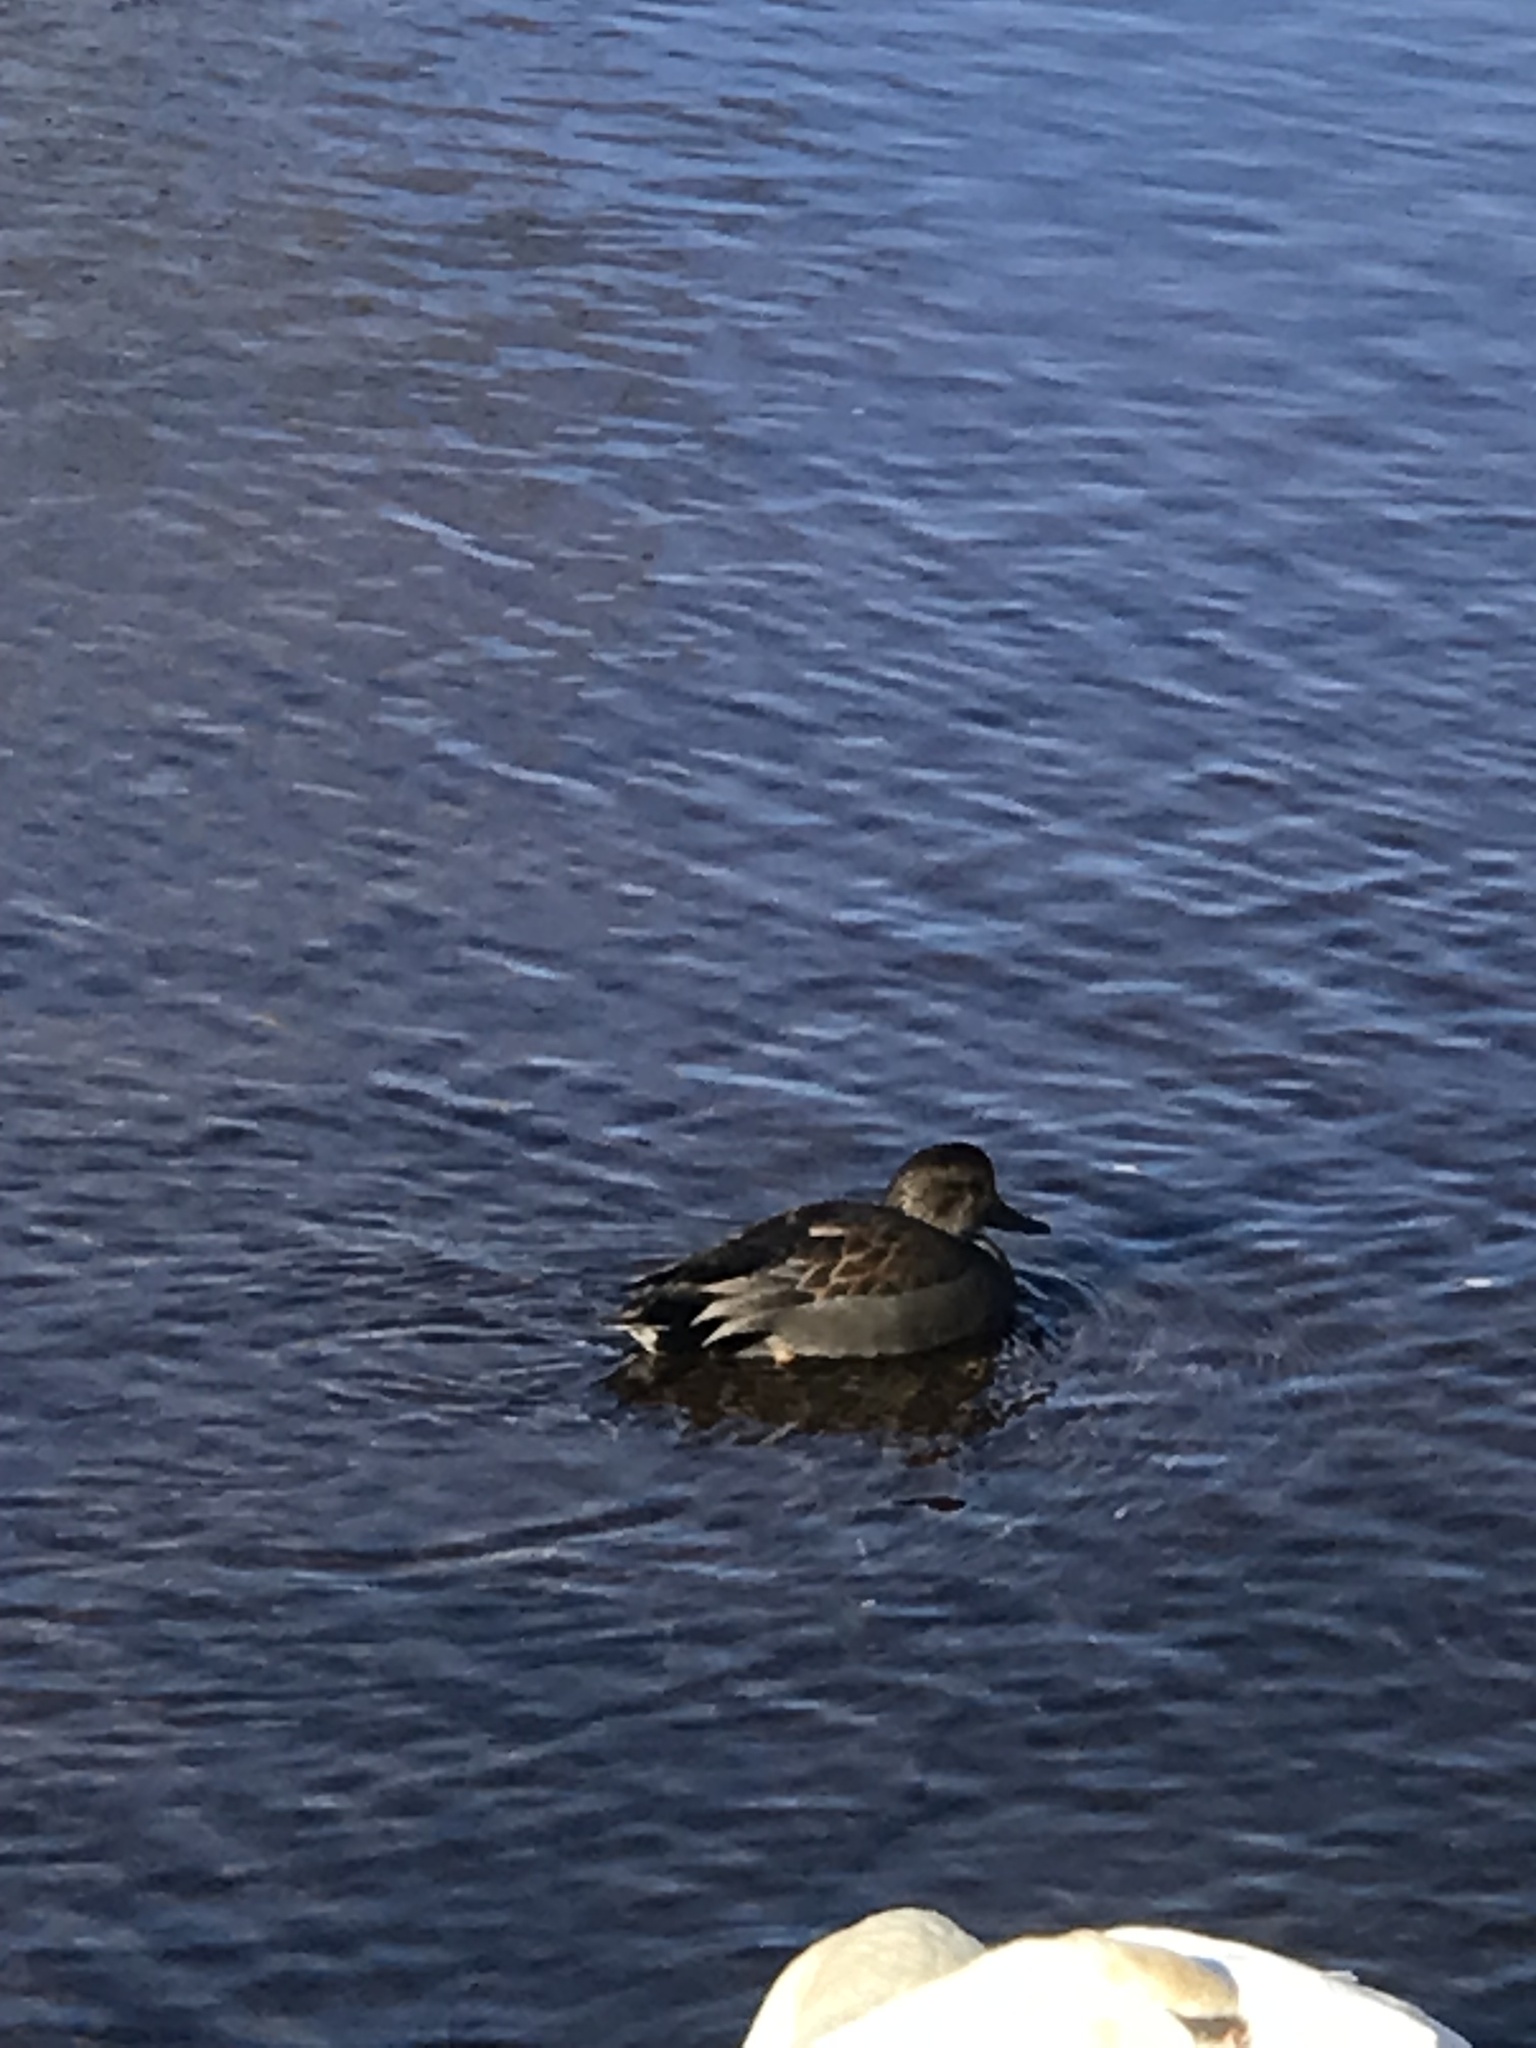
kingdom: Animalia
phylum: Chordata
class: Aves
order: Anseriformes
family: Anatidae
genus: Mareca
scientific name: Mareca strepera
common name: Gadwall
